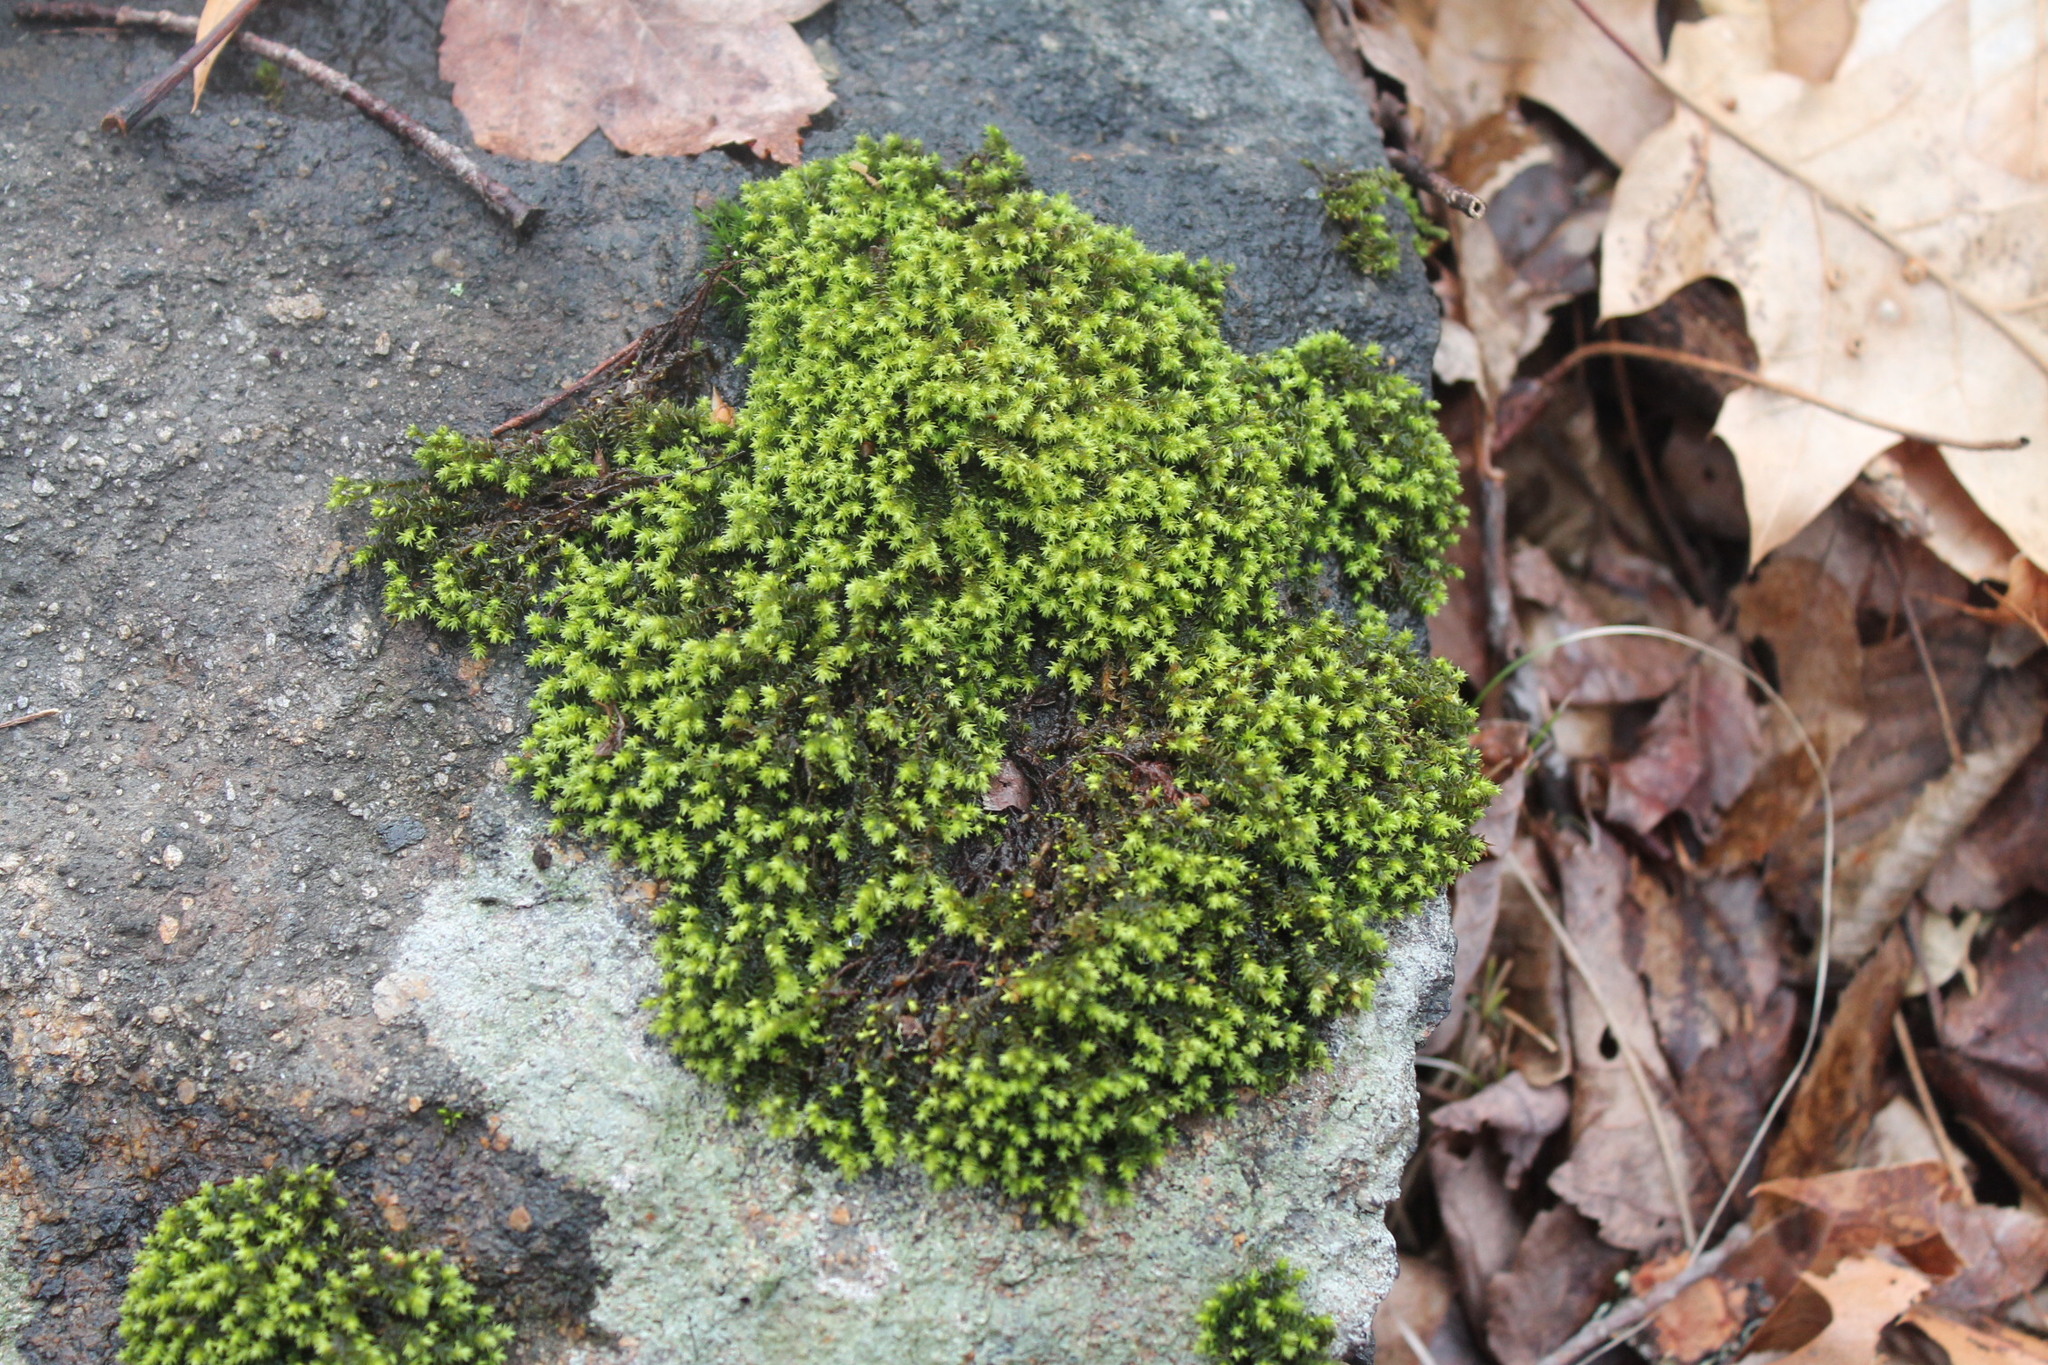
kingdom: Plantae
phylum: Bryophyta
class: Bryopsida
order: Hedwigiales
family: Hedwigiaceae
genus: Hedwigia
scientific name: Hedwigia ciliata
